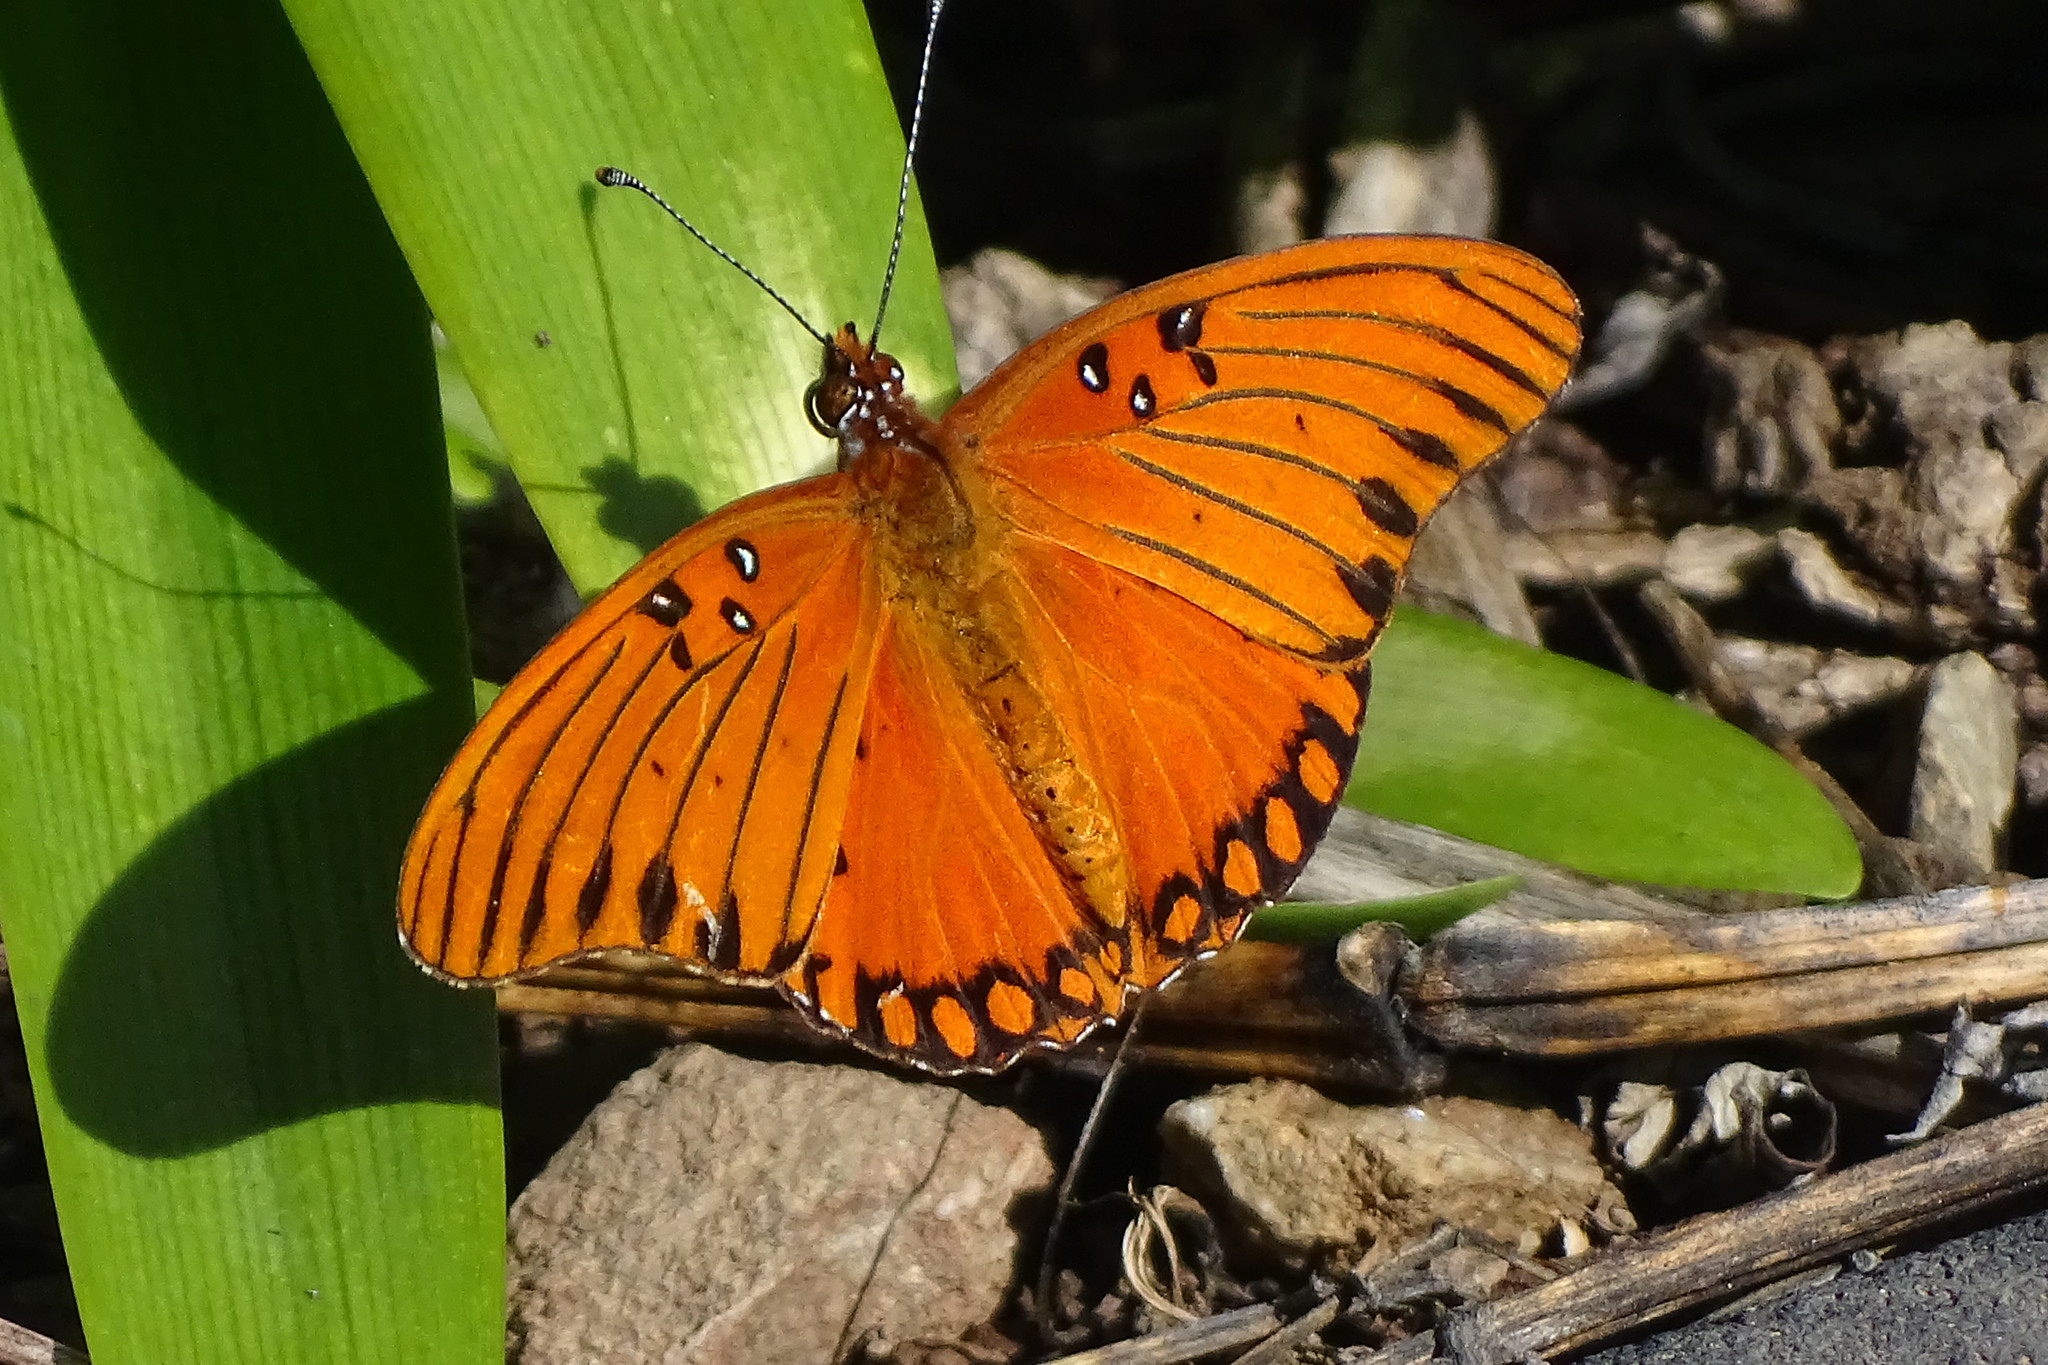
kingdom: Animalia
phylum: Arthropoda
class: Insecta
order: Lepidoptera
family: Nymphalidae
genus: Dione
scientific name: Dione vanillae
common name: Gulf fritillary
